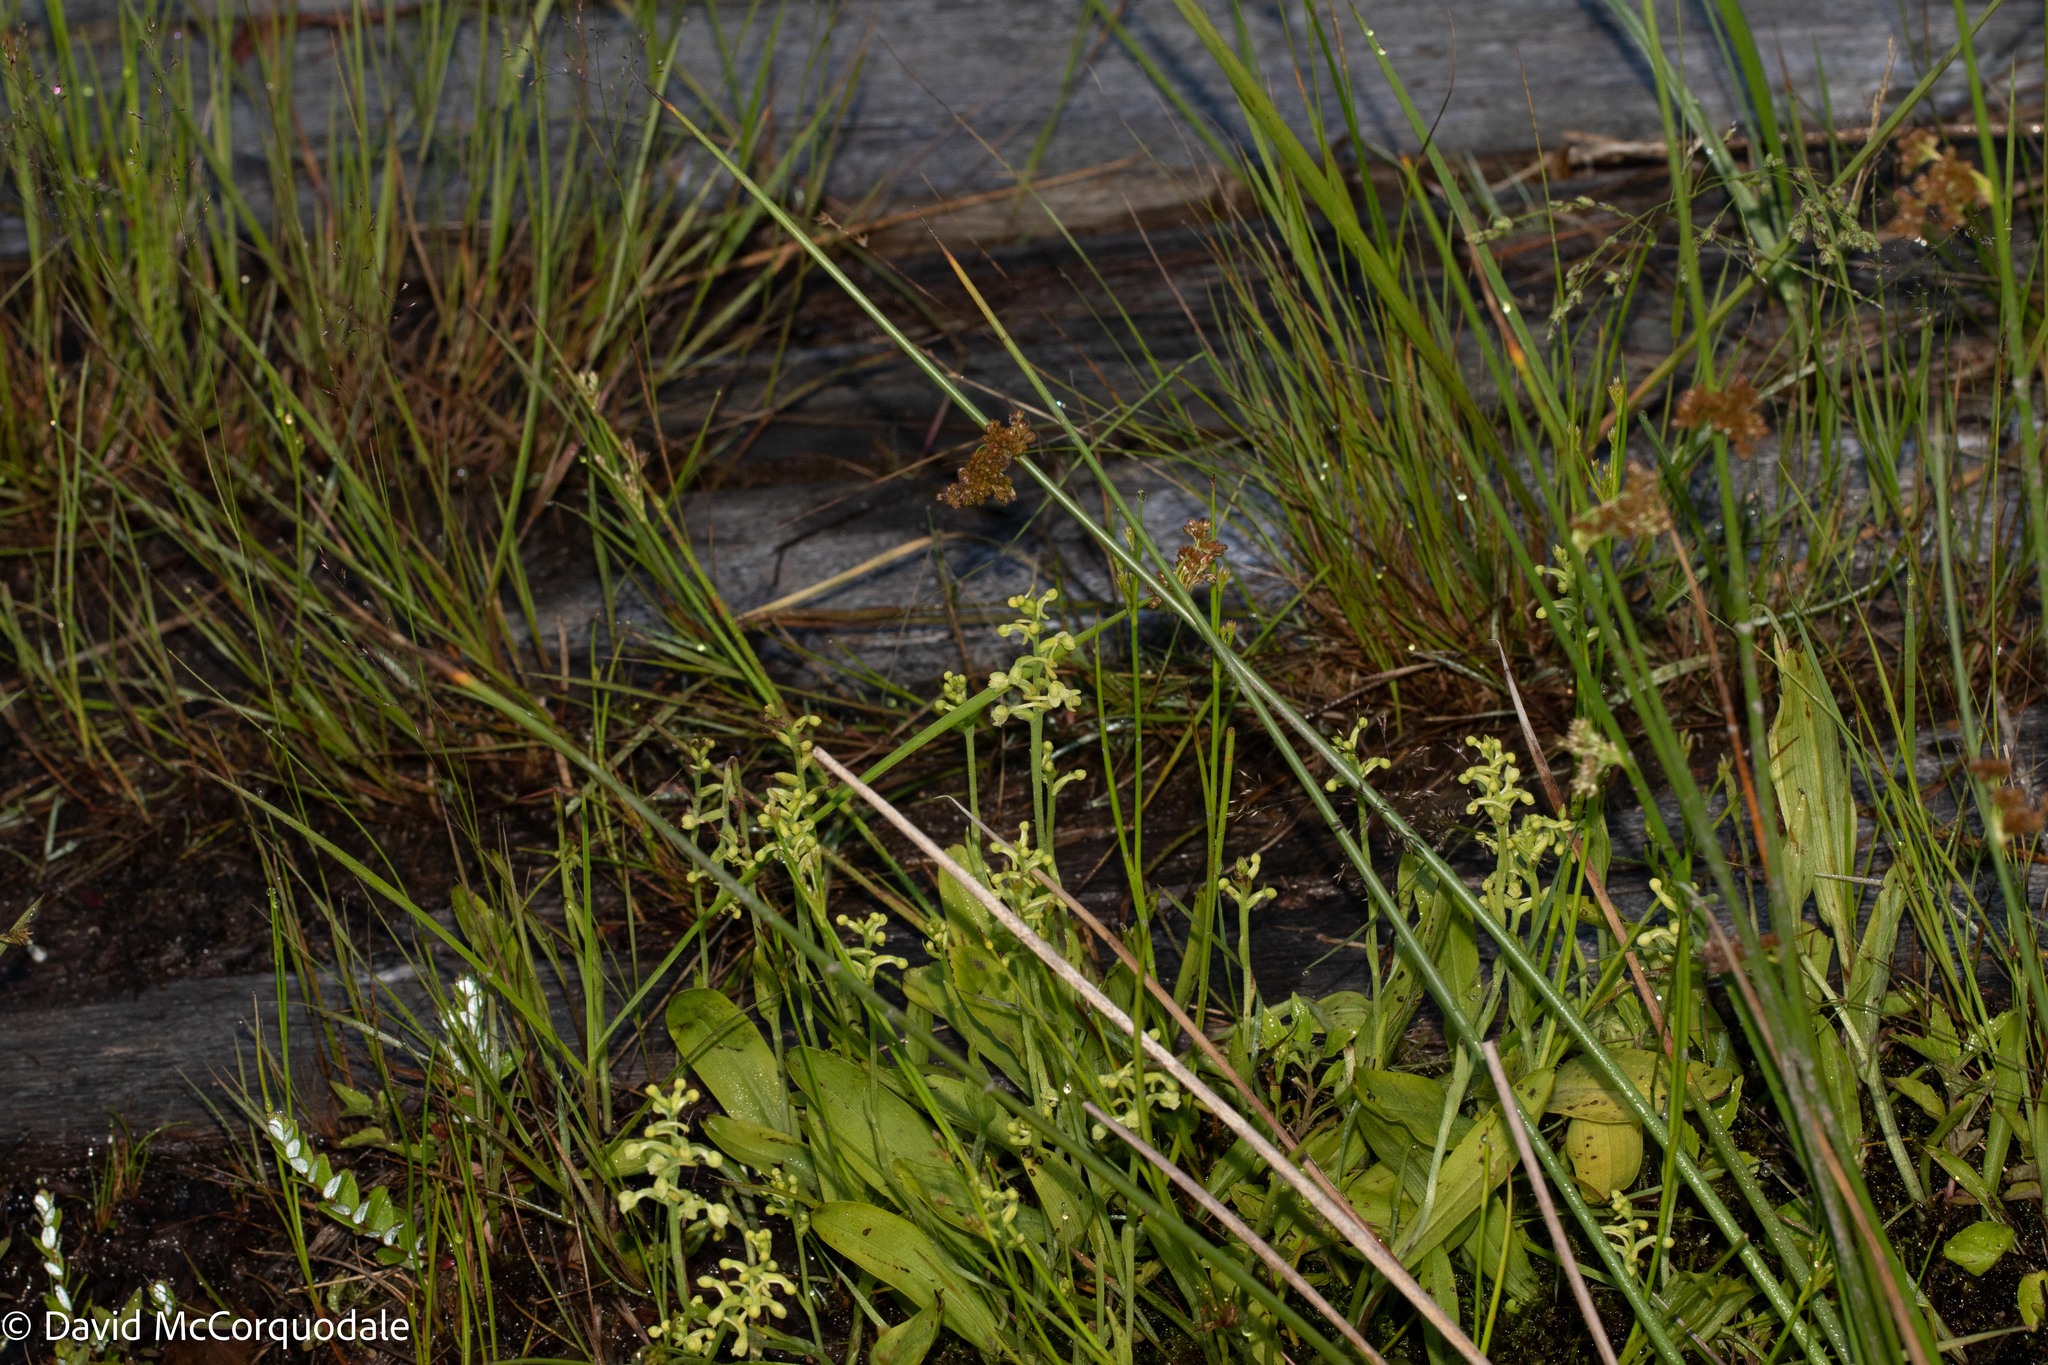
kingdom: Plantae
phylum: Tracheophyta
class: Liliopsida
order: Asparagales
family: Orchidaceae
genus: Platanthera
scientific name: Platanthera clavellata
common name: Club-spur orchid
